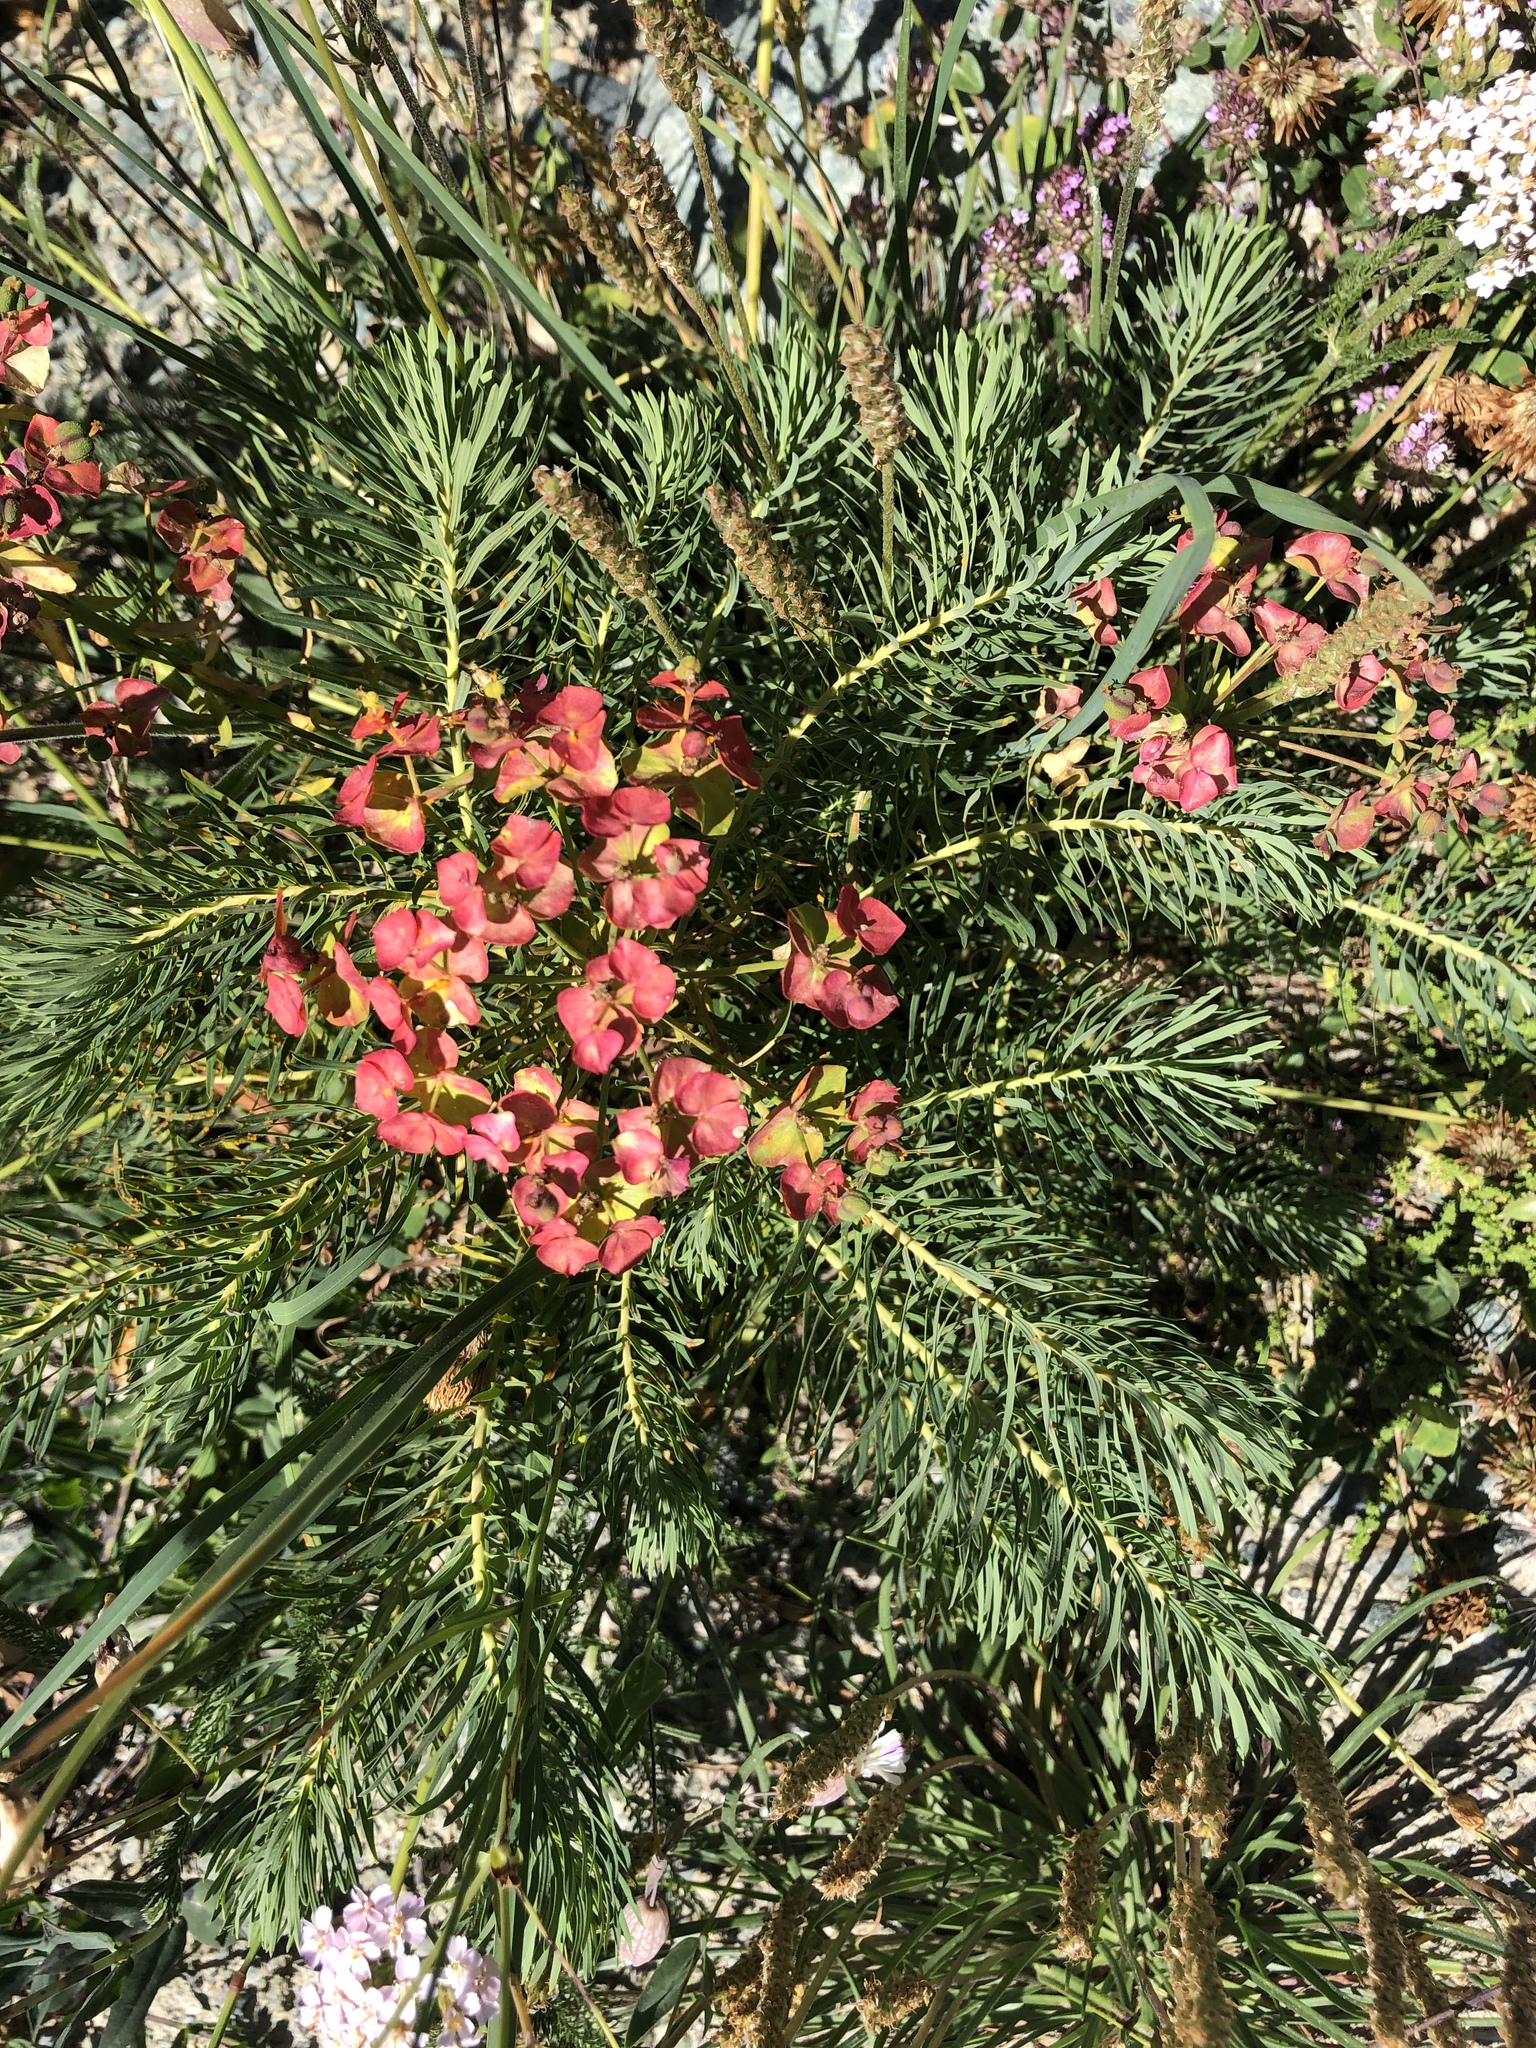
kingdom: Plantae
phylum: Tracheophyta
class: Magnoliopsida
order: Malpighiales
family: Euphorbiaceae
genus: Euphorbia
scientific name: Euphorbia cyparissias
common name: Cypress spurge
